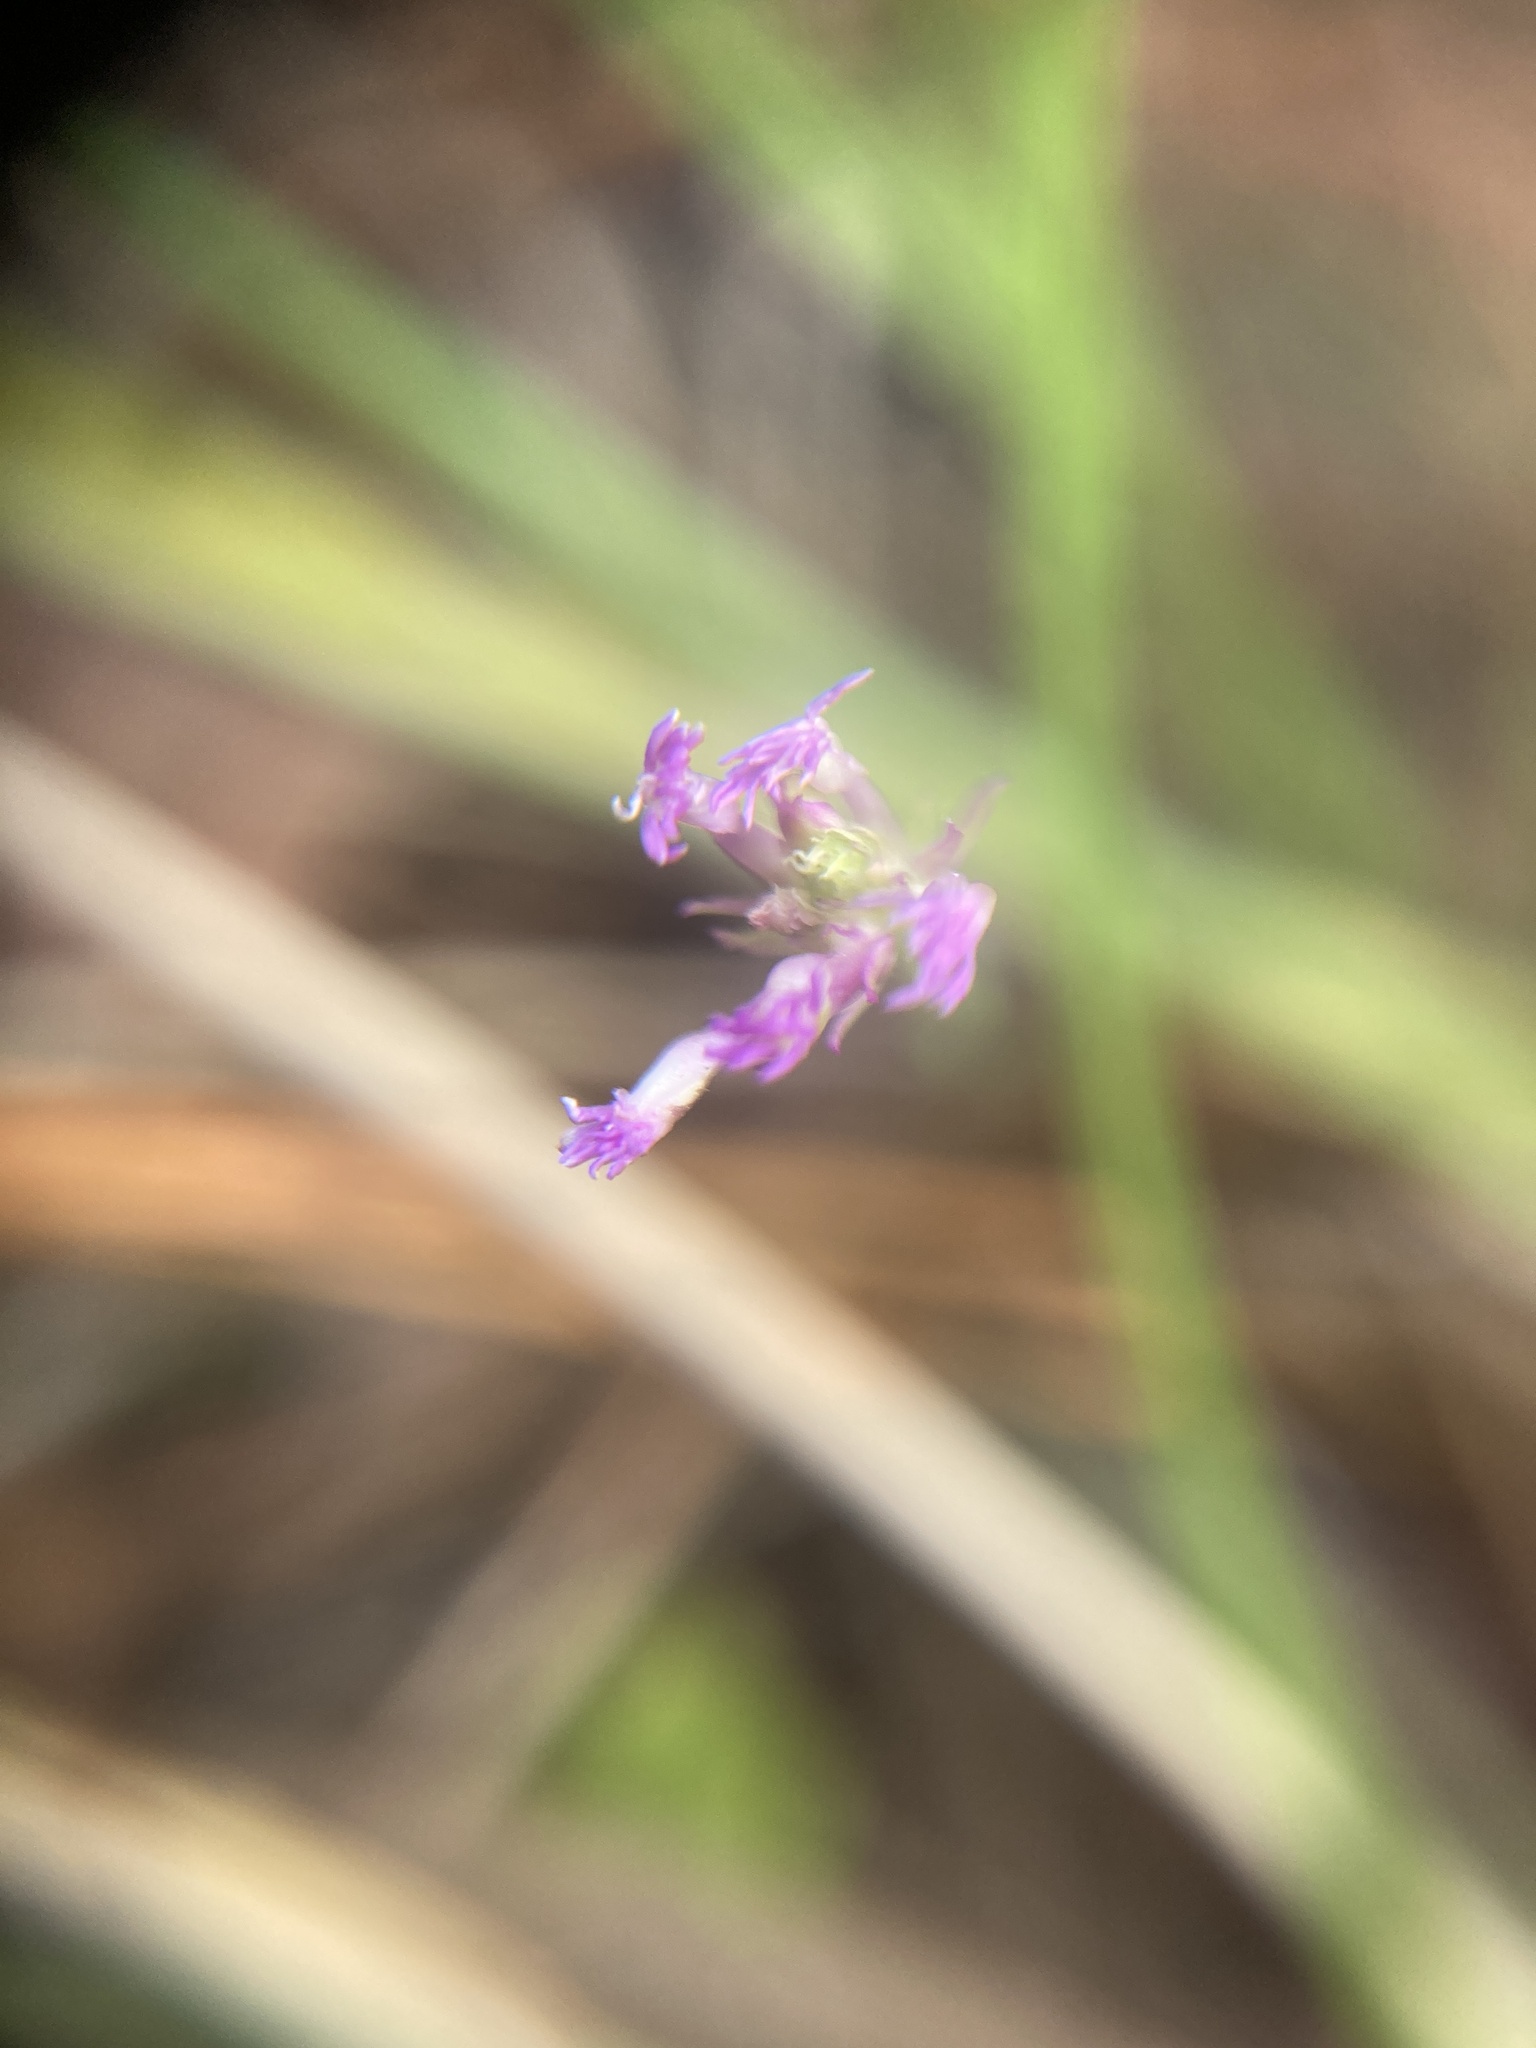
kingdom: Plantae
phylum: Tracheophyta
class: Magnoliopsida
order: Fabales
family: Polygalaceae
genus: Polygala
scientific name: Polygala incarnata
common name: Pink milkwort
